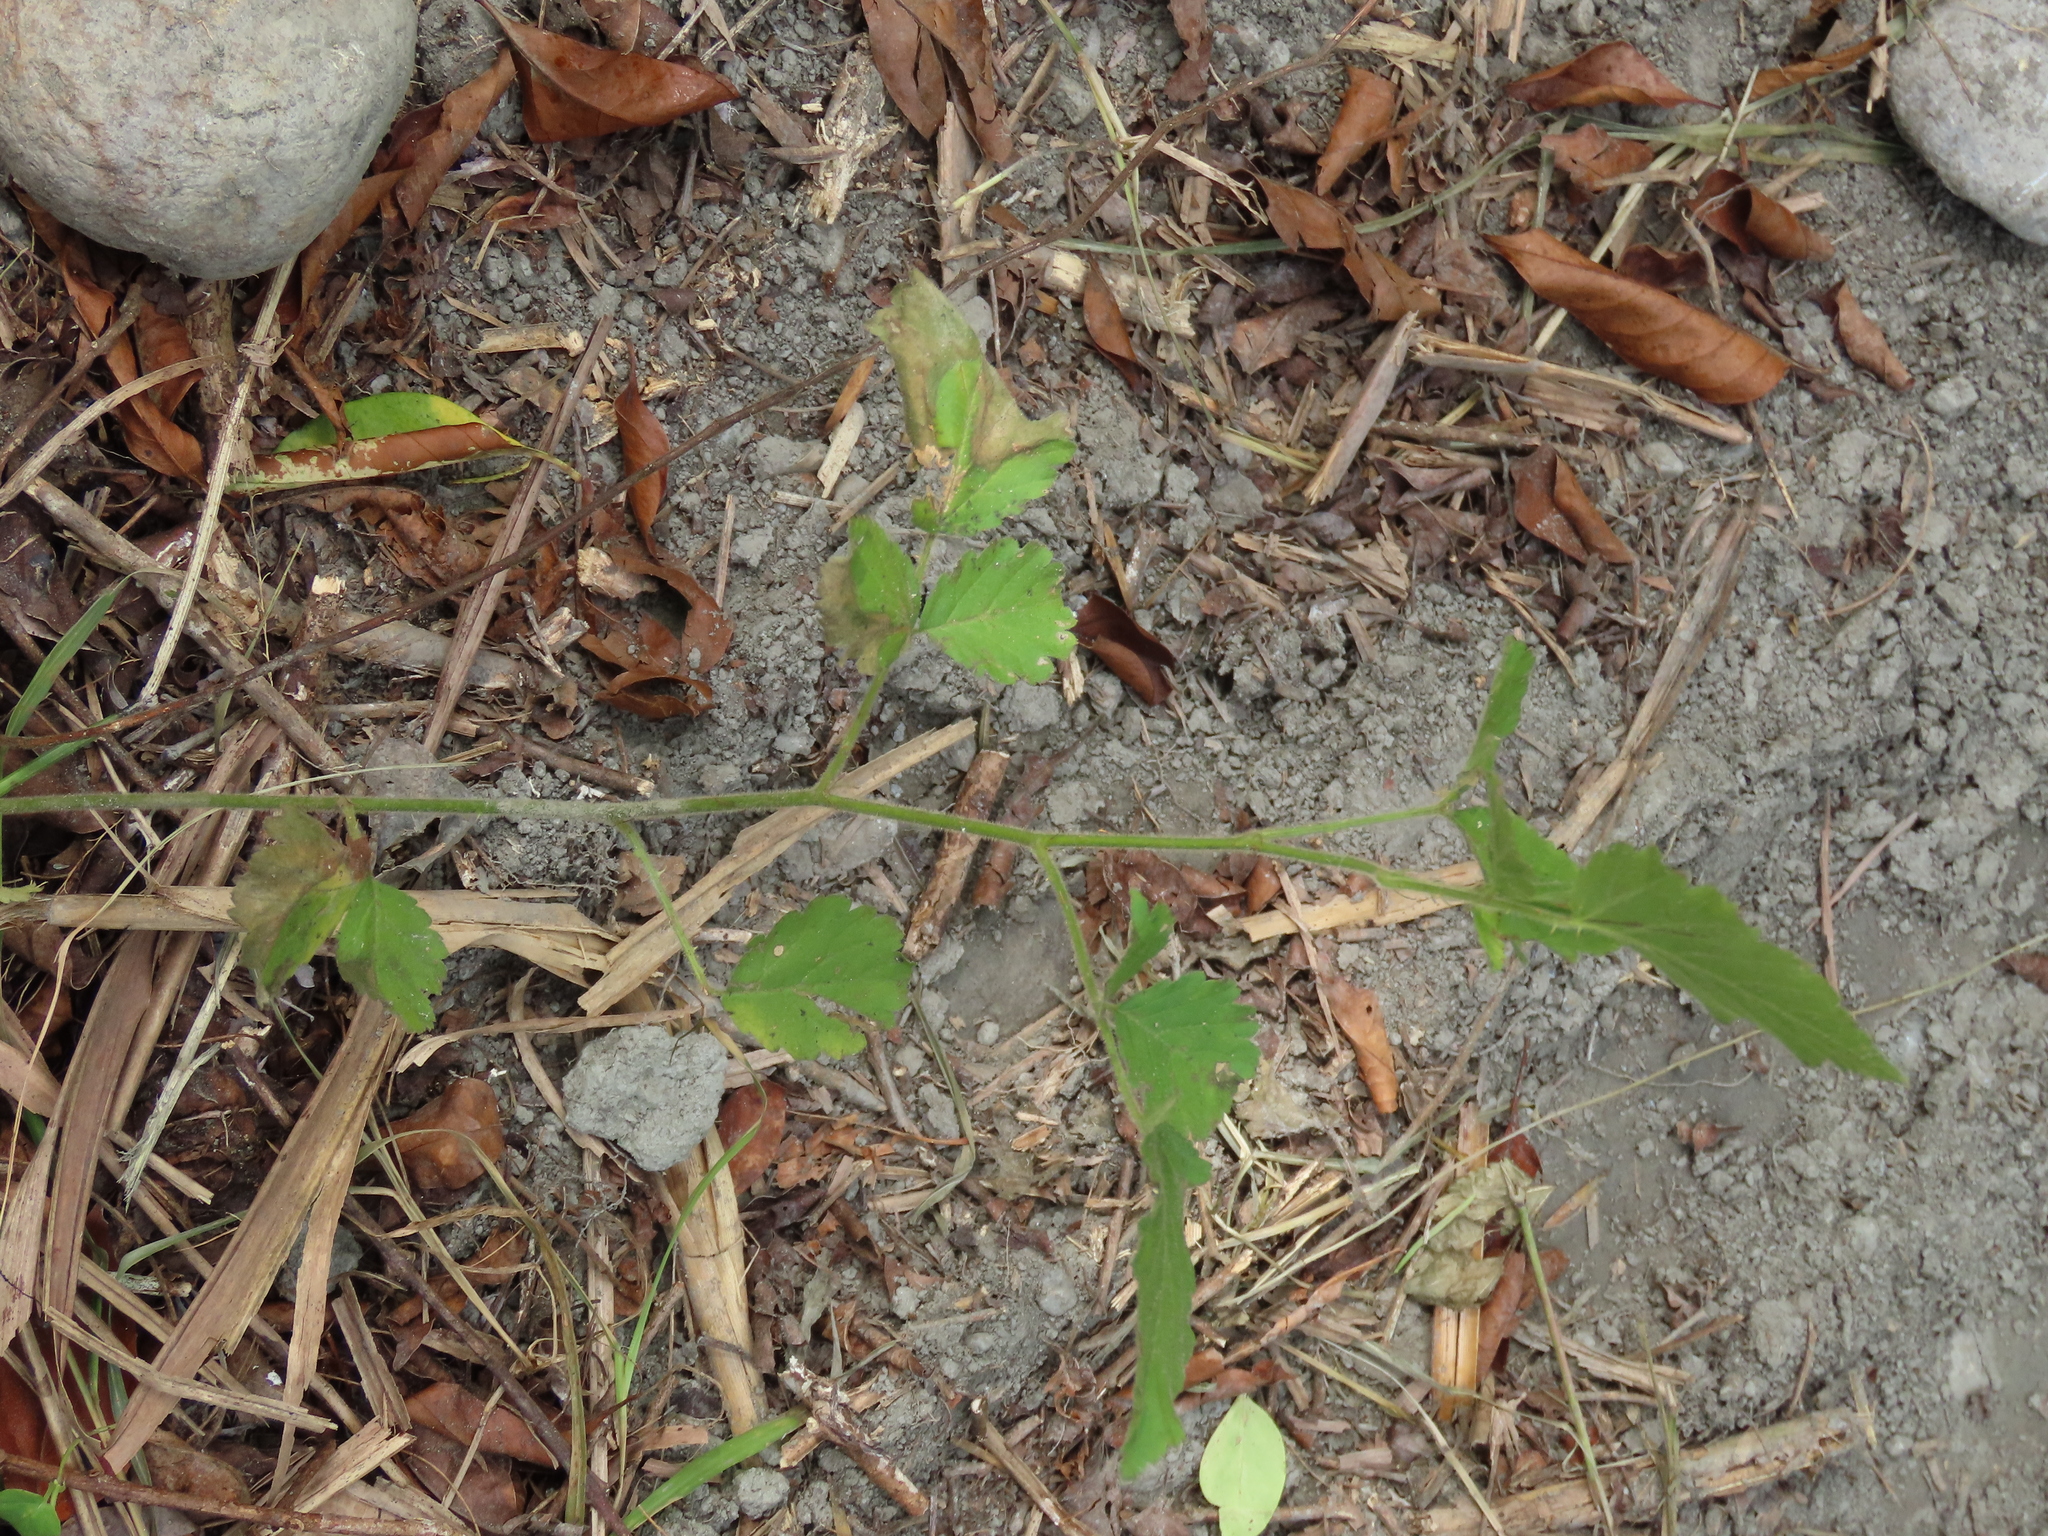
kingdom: Plantae
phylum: Tracheophyta
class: Magnoliopsida
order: Rosales
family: Rosaceae
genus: Rubus
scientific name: Rubus rosifolius
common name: Roseleaf raspberry
